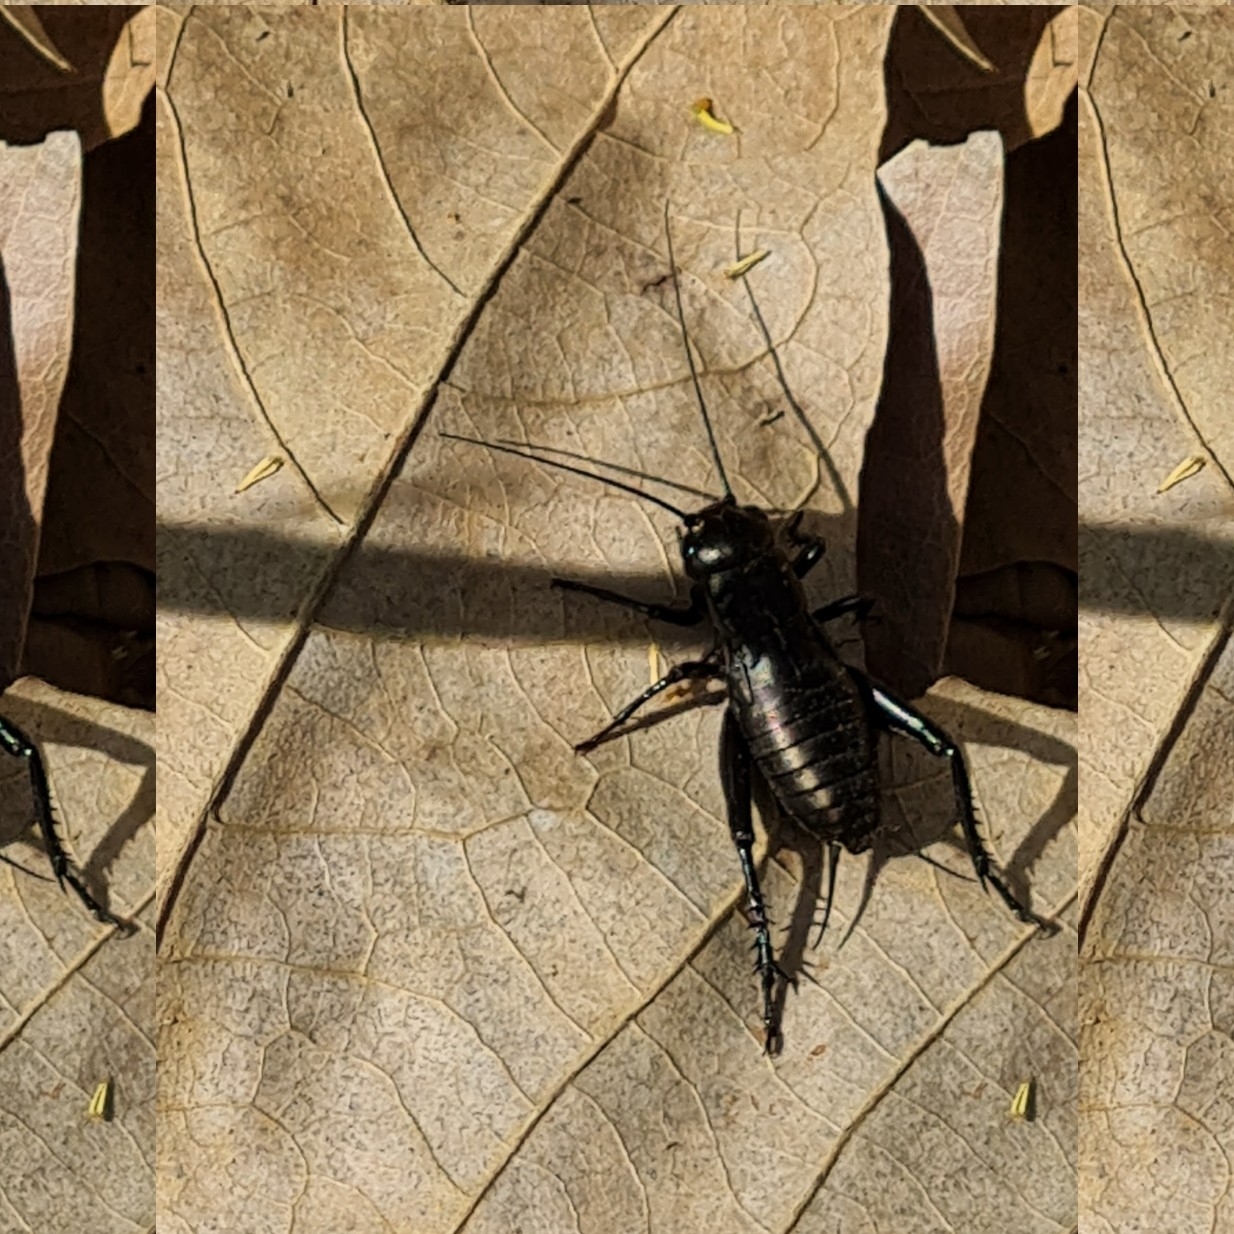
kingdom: Animalia
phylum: Arthropoda
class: Insecta
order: Orthoptera
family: Gryllidae
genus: Gryllus
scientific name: Gryllus campestris
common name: Field cricket
